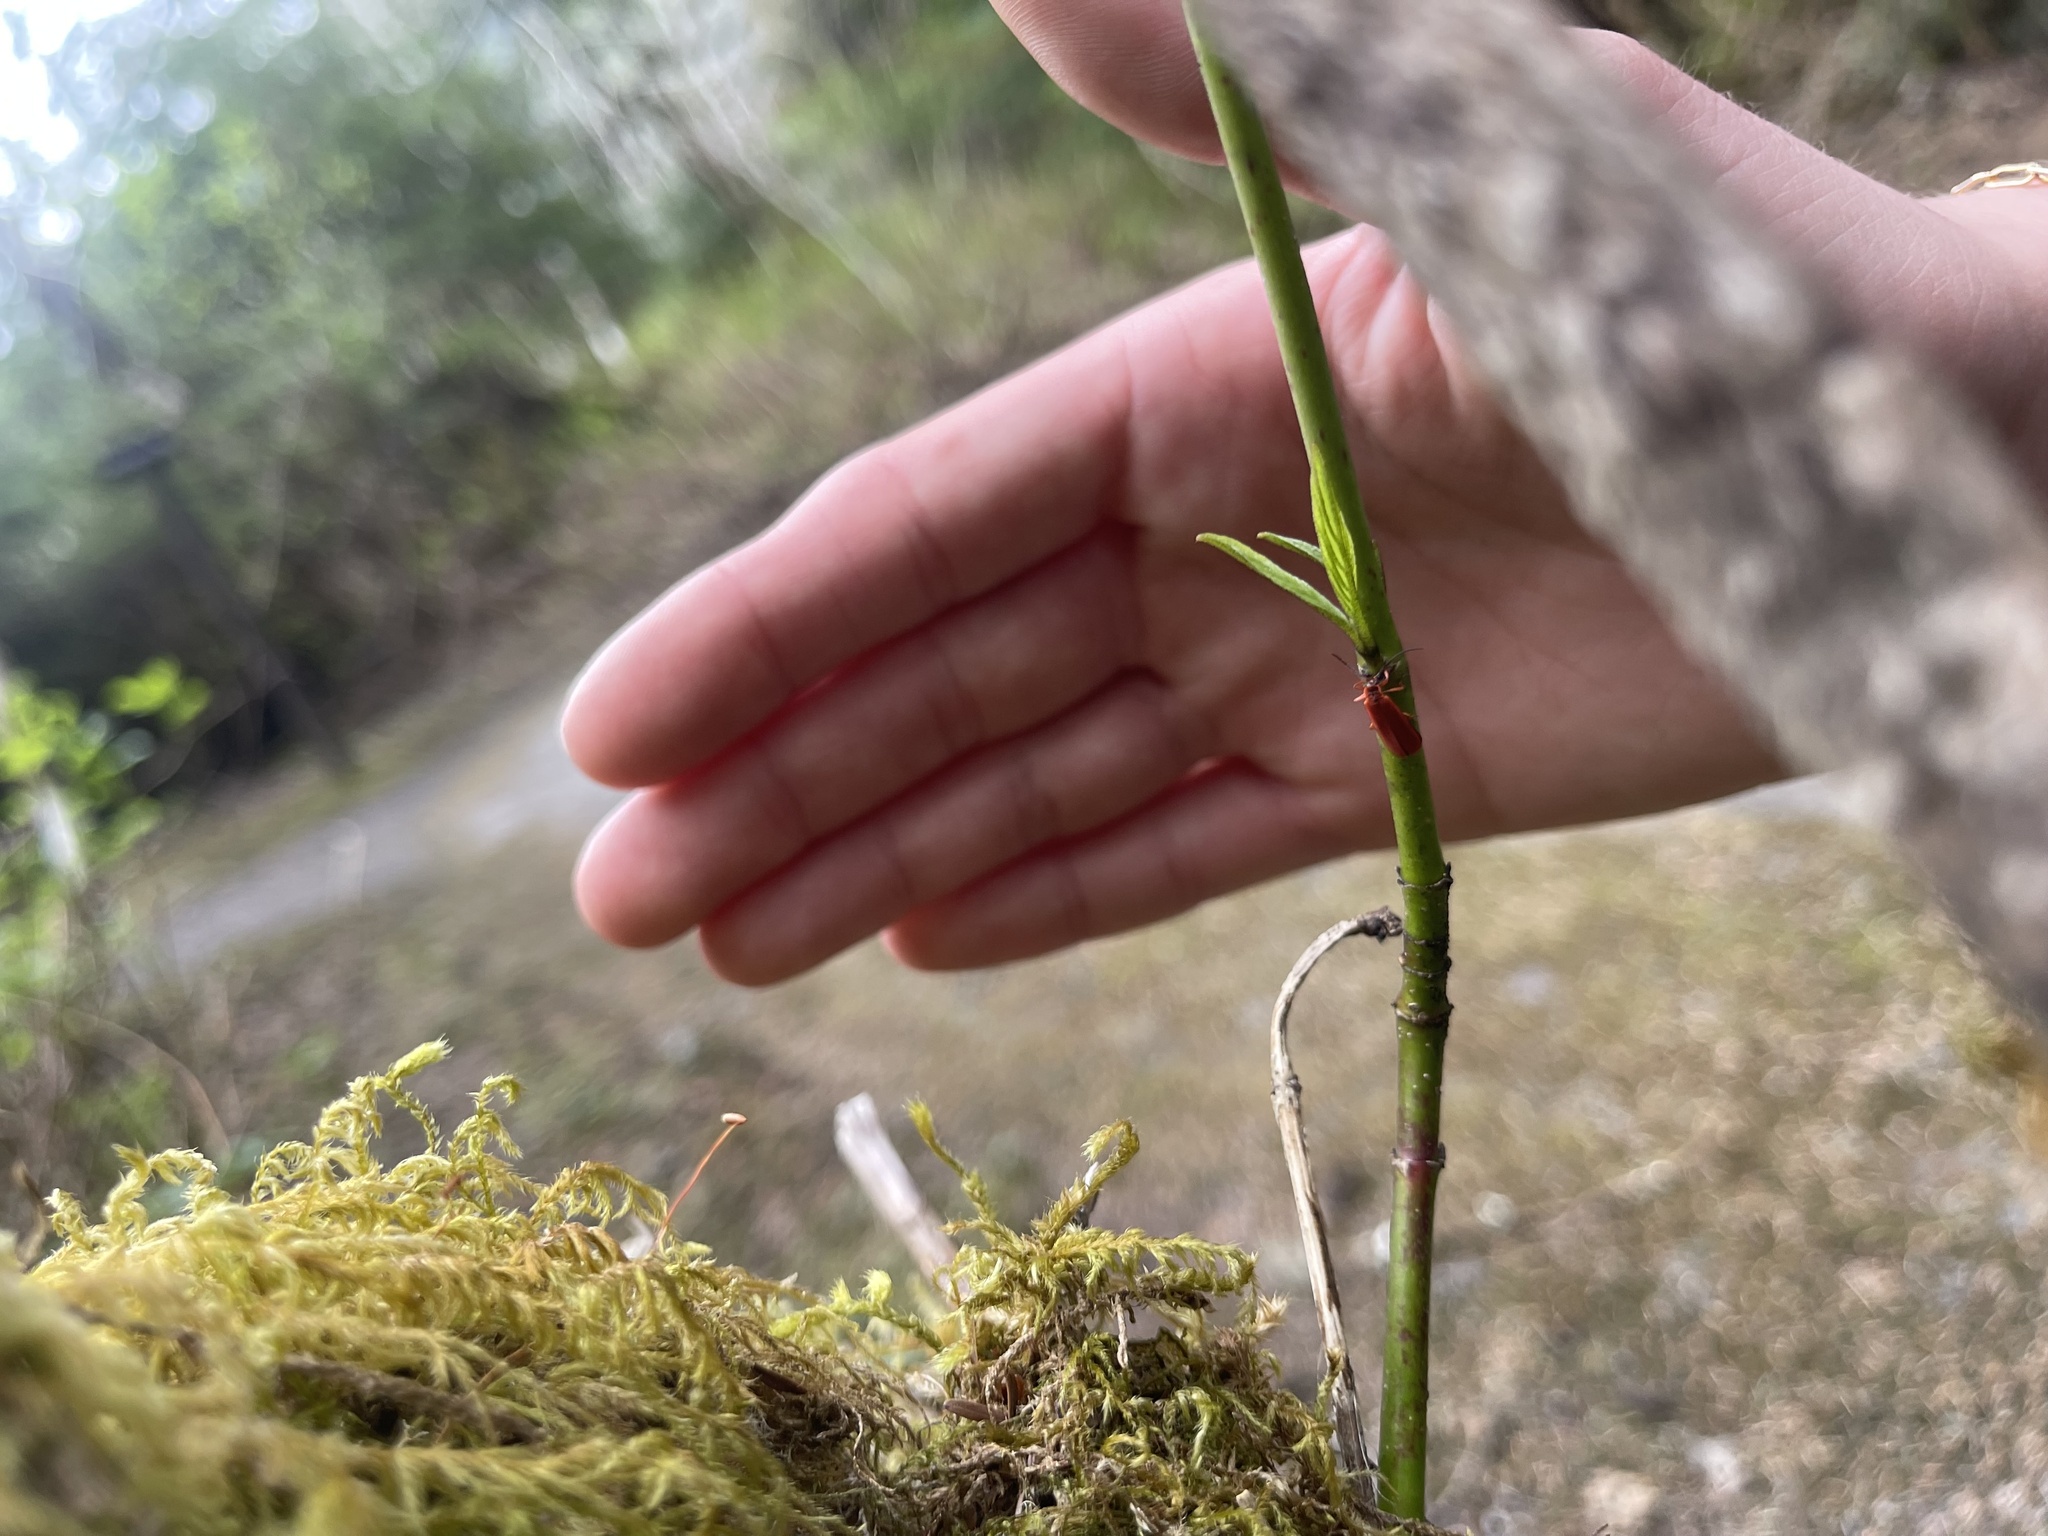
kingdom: Animalia
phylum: Arthropoda
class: Insecta
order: Coleoptera
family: Lycidae
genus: Dictyoptera
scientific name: Dictyoptera simplicipes
